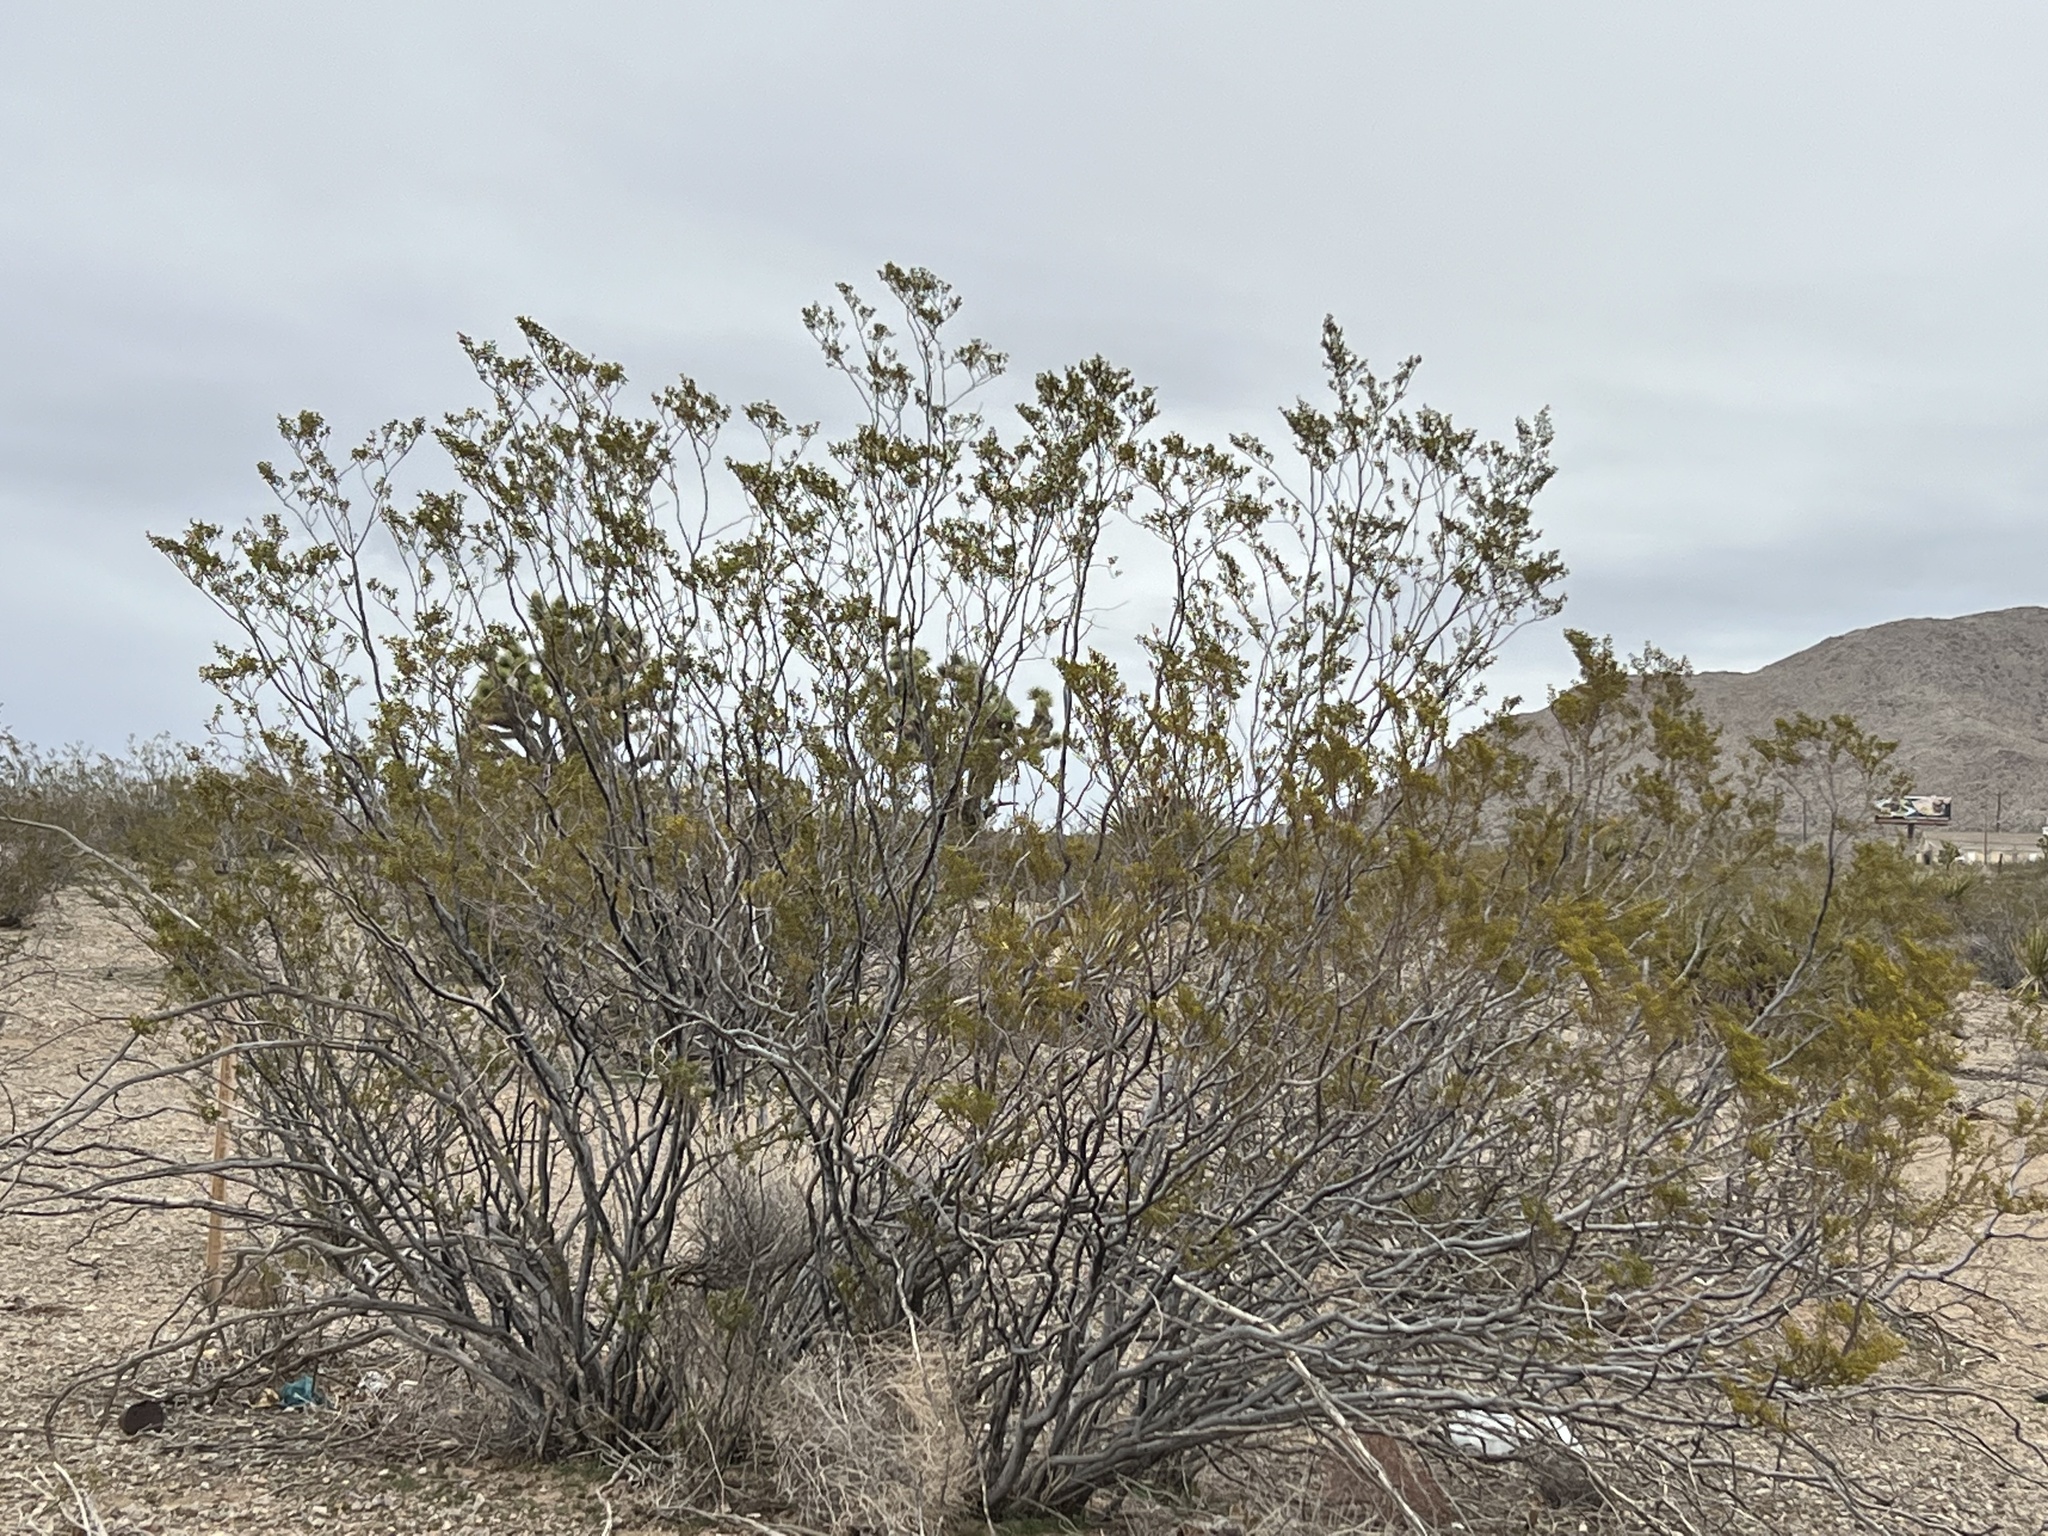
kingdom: Plantae
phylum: Tracheophyta
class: Magnoliopsida
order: Zygophyllales
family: Zygophyllaceae
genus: Larrea
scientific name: Larrea tridentata
